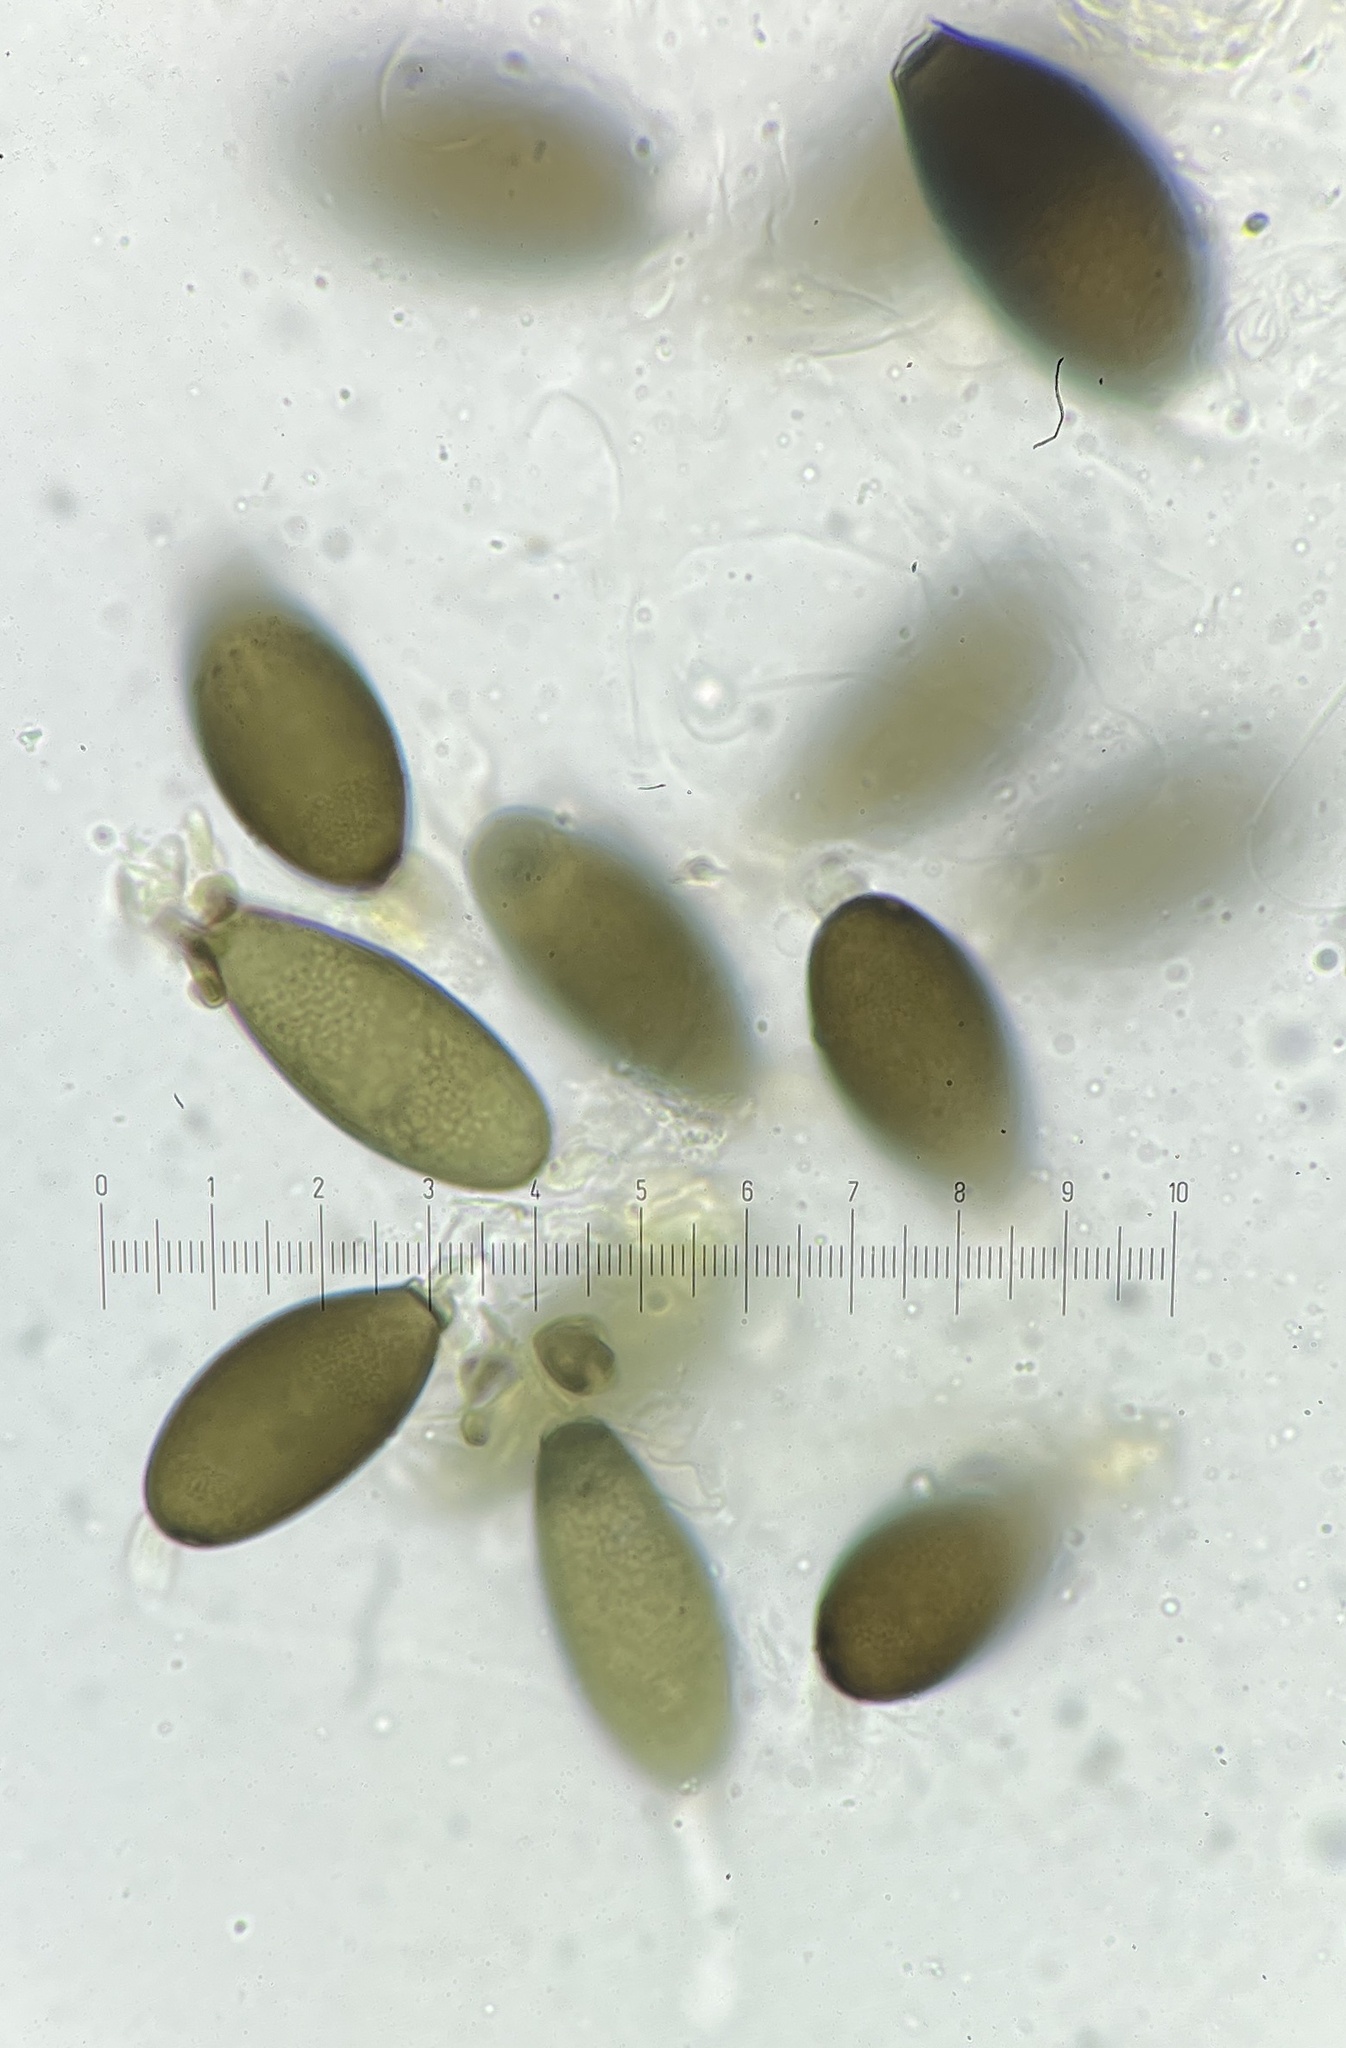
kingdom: Fungi
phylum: Ascomycota
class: Sordariomycetes
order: Sordariales
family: Naviculisporaceae
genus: Rhypophila
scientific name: Rhypophila pleiospora
